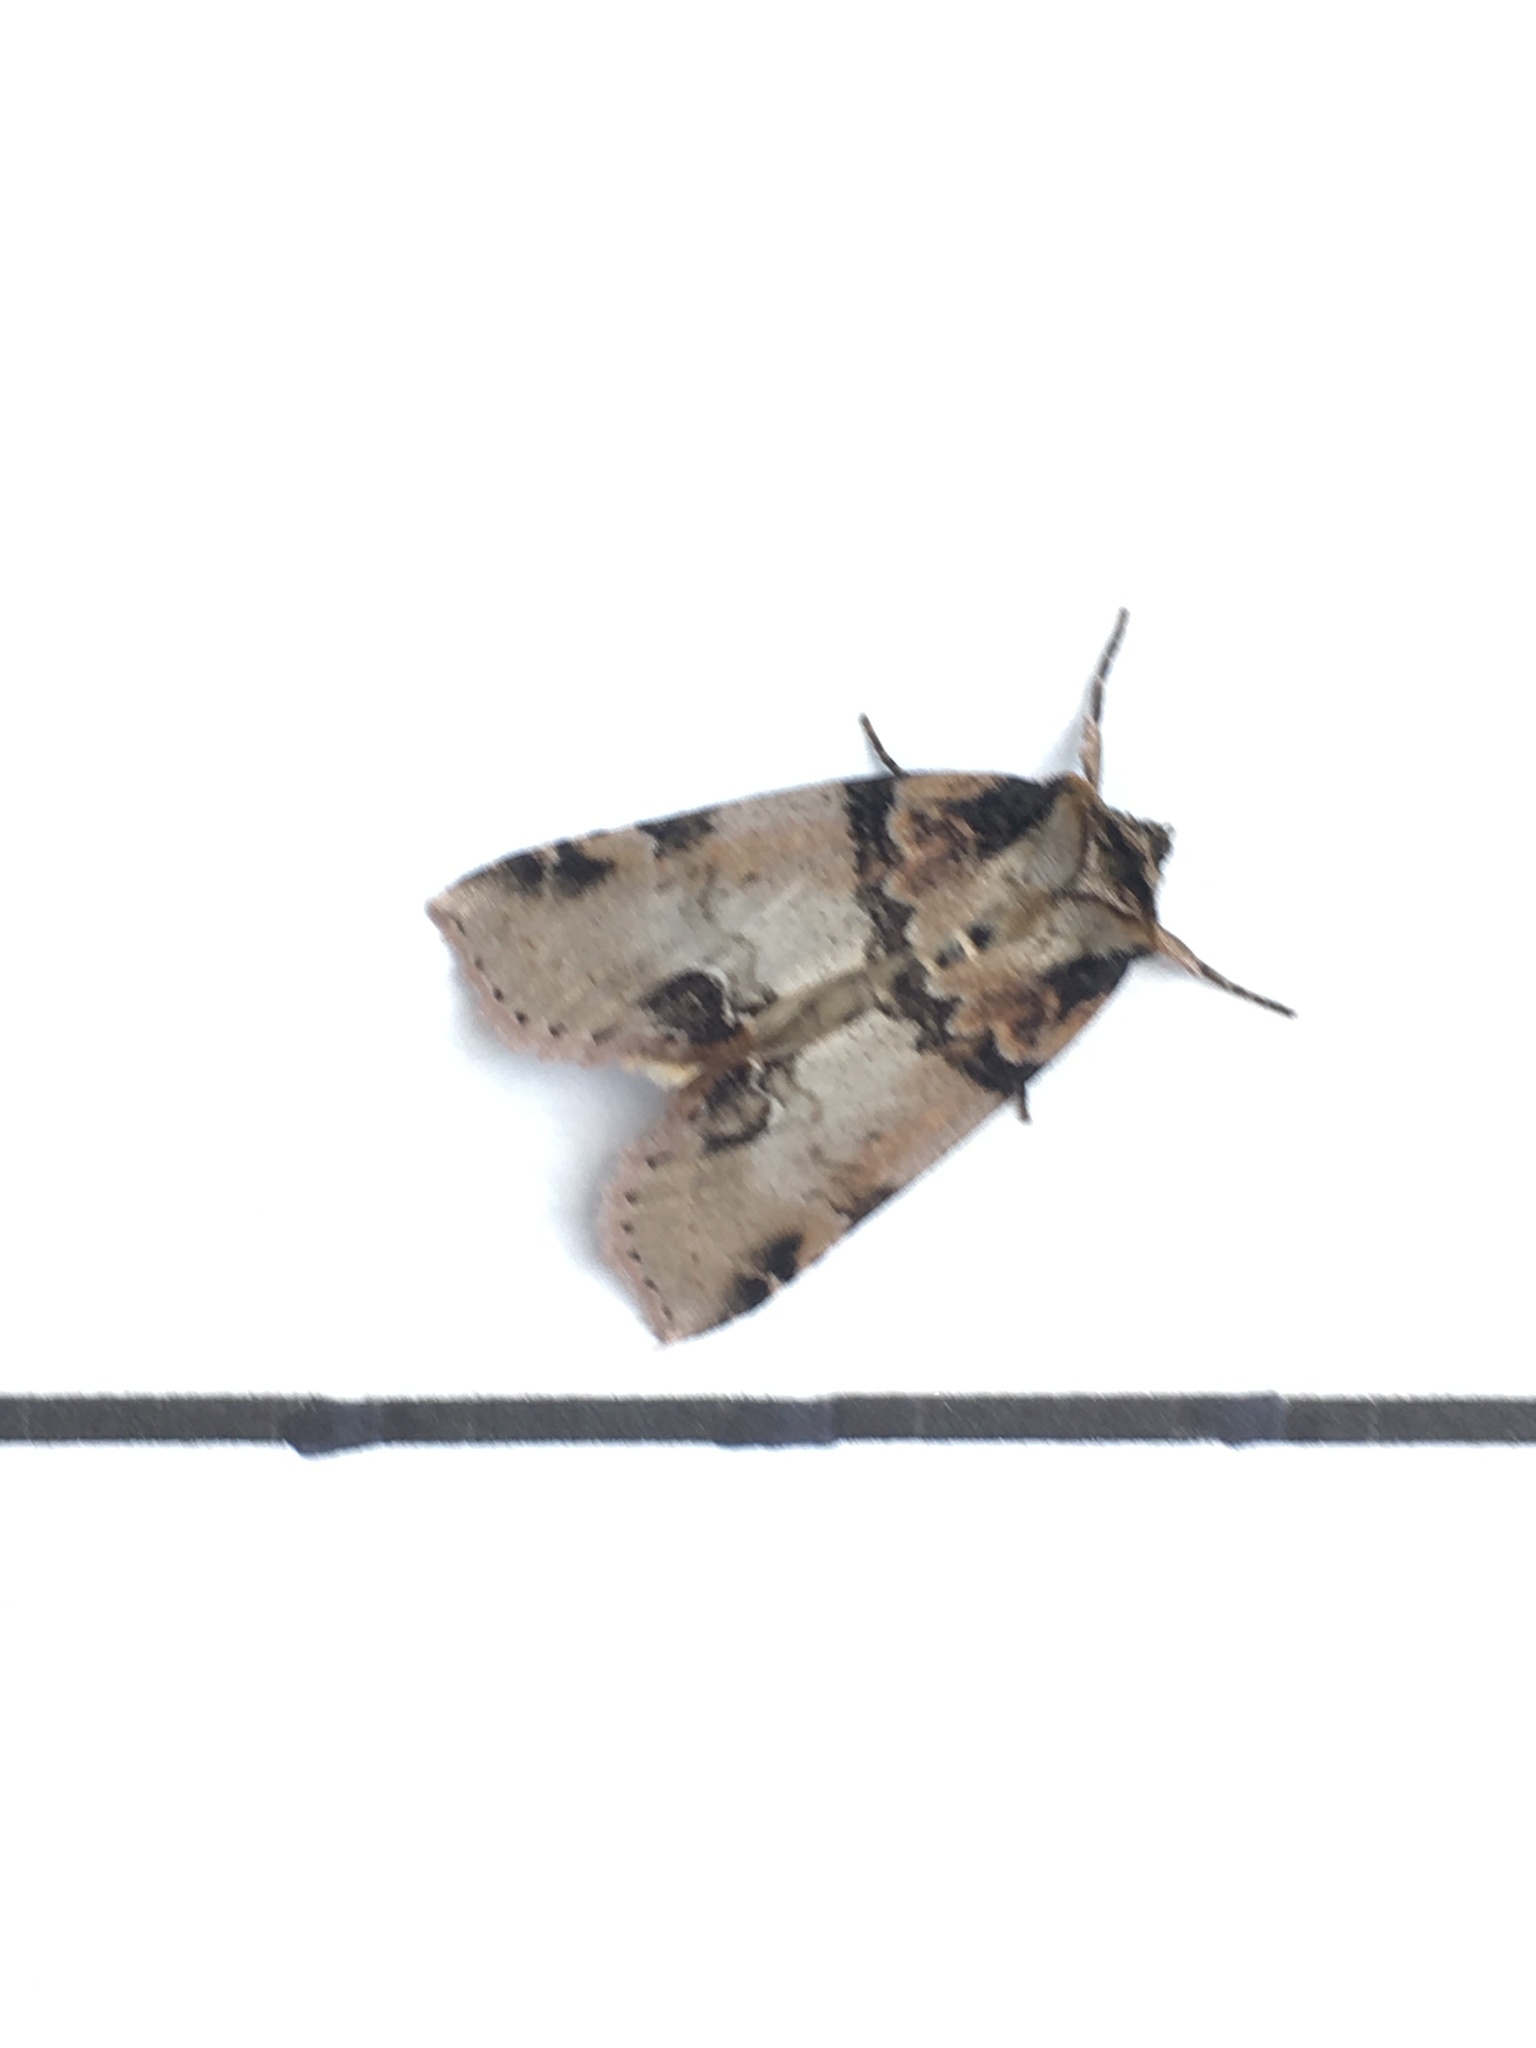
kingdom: Animalia
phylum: Arthropoda
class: Insecta
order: Lepidoptera
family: Drepanidae
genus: Pseudothyatira
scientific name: Pseudothyatira cymatophoroides
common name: Tufted thyatirid moth
